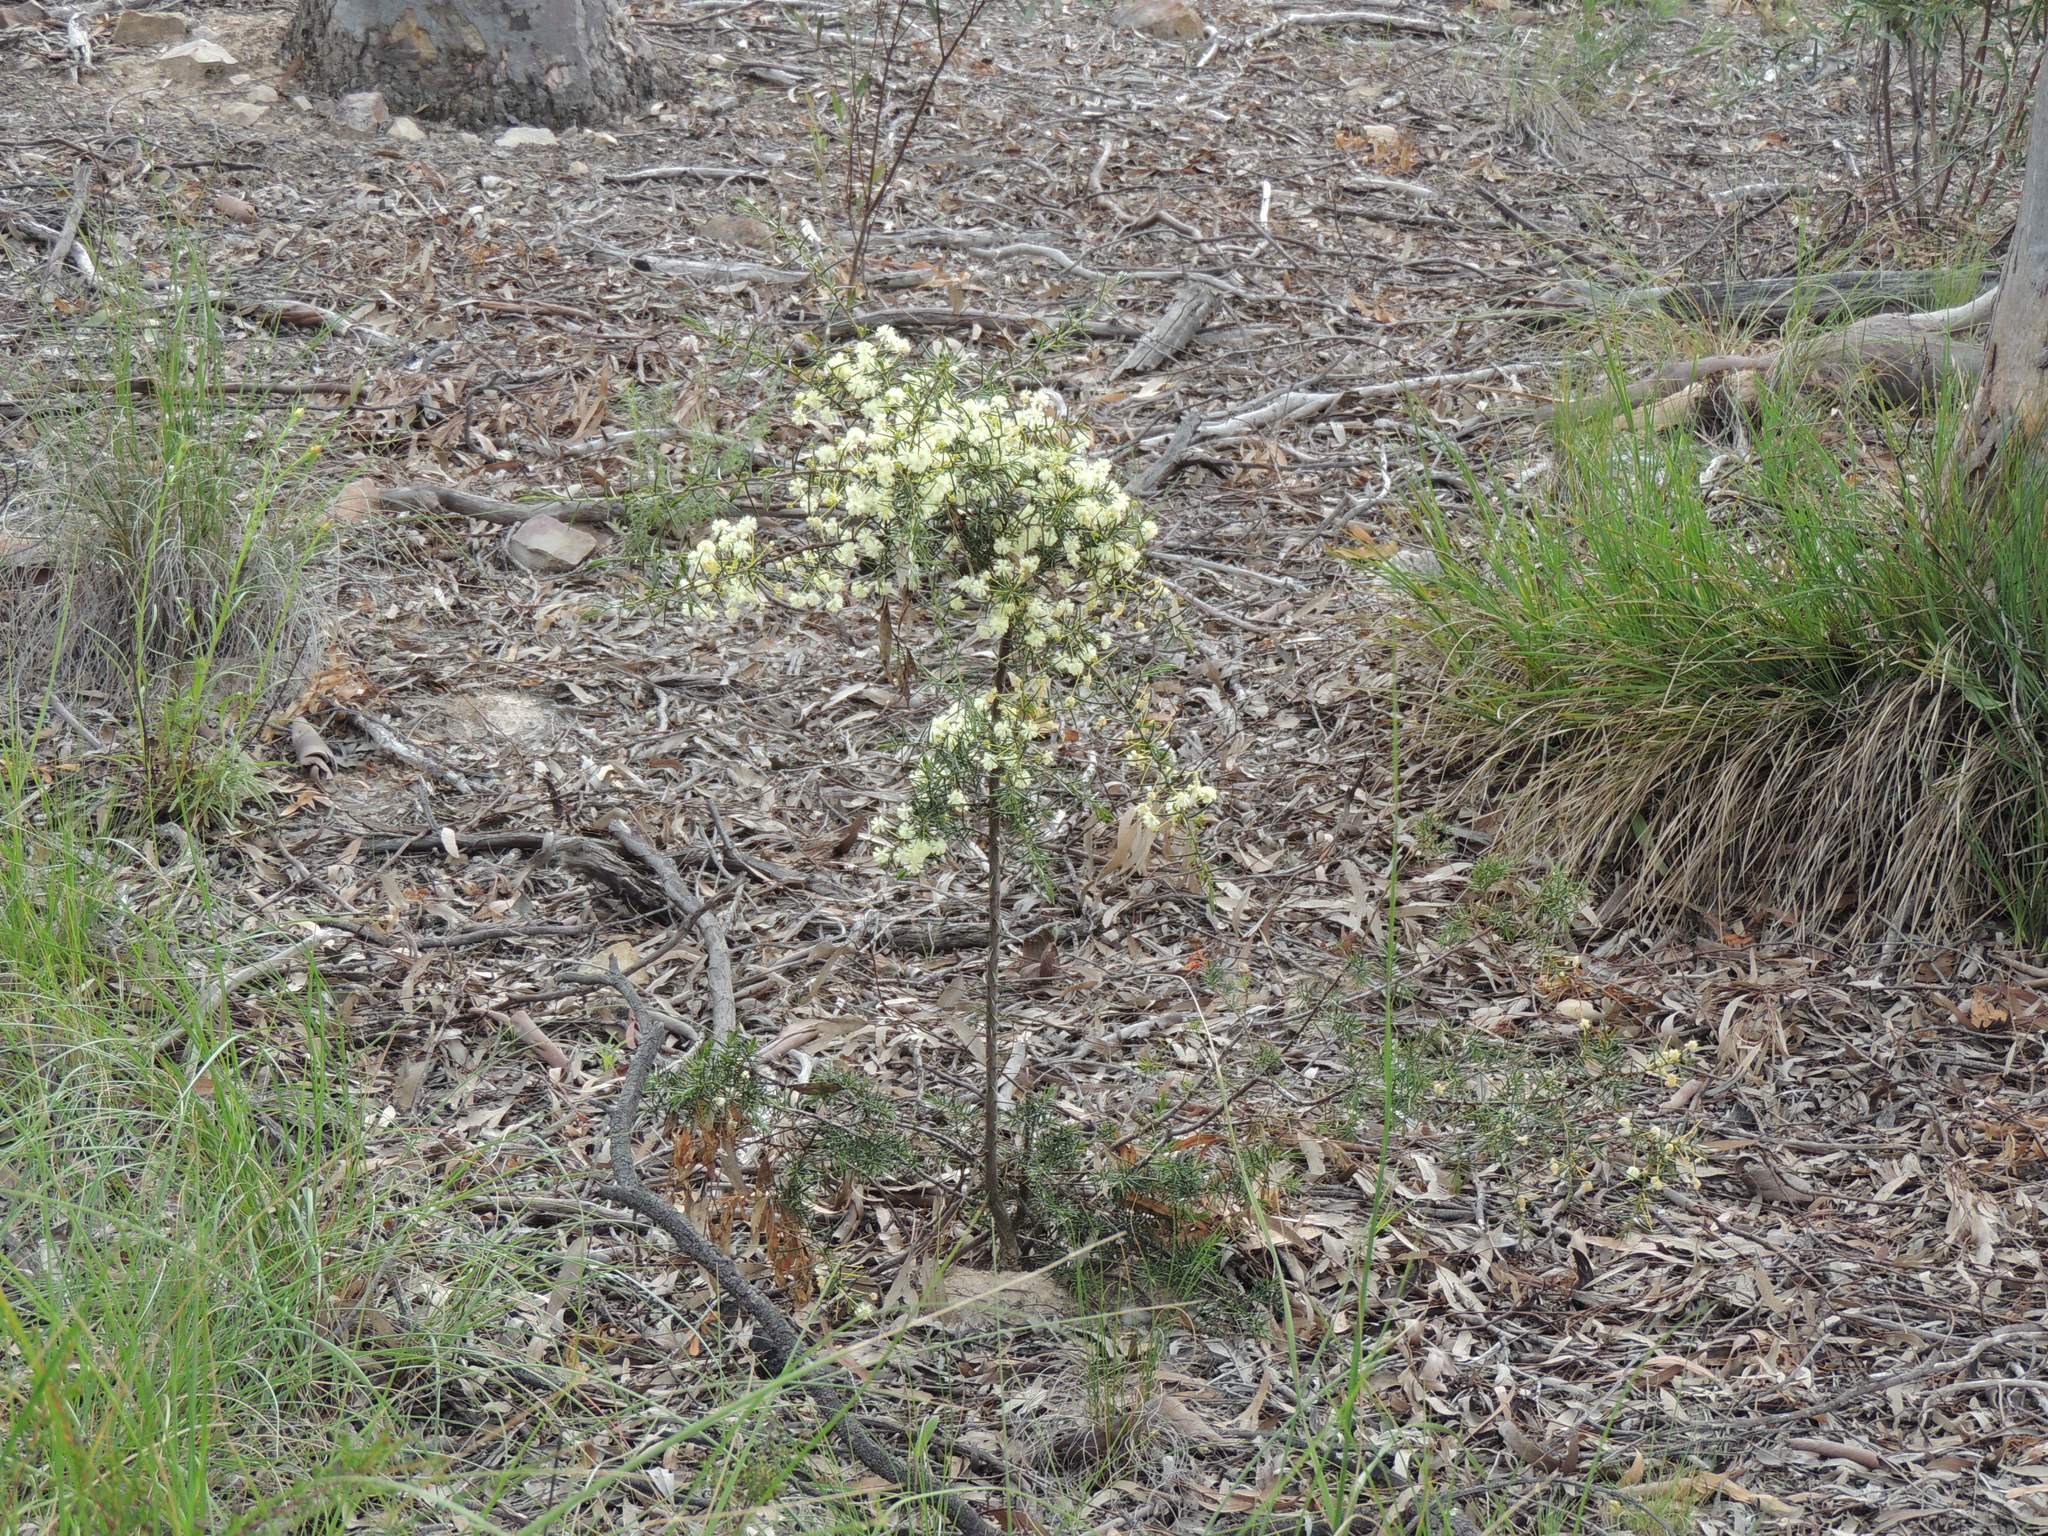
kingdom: Plantae
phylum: Tracheophyta
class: Magnoliopsida
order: Fabales
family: Fabaceae
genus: Acacia
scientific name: Acacia genistifolia
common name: Early wattle
